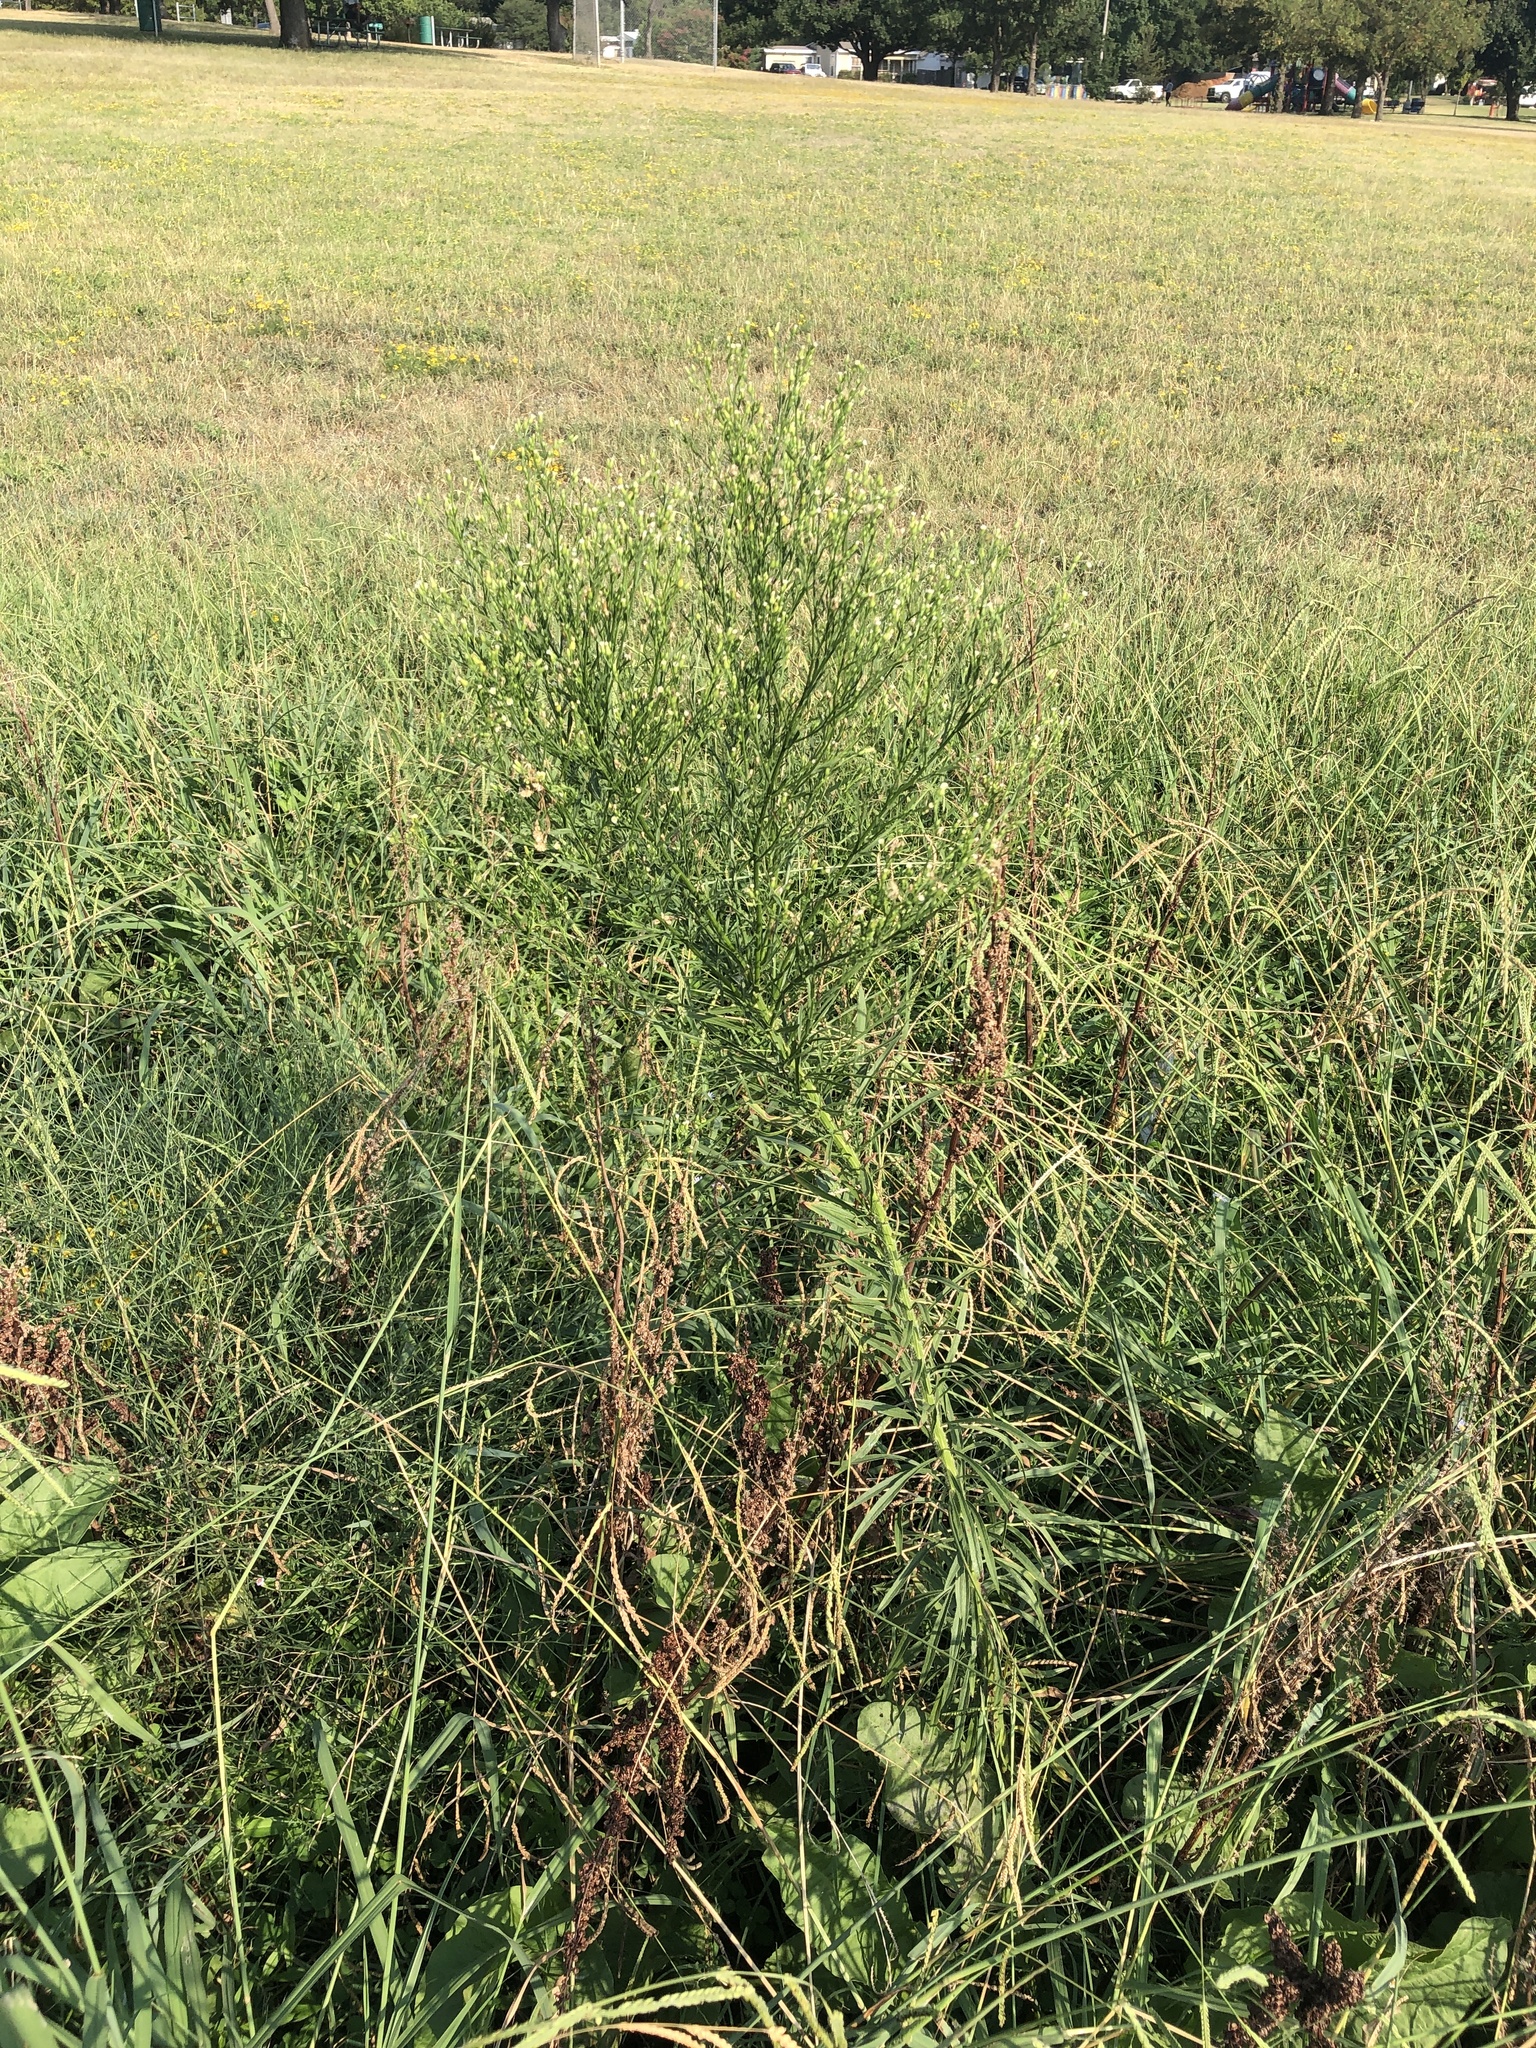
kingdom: Plantae
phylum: Tracheophyta
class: Magnoliopsida
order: Asterales
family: Asteraceae
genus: Erigeron
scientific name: Erigeron canadensis
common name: Canadian fleabane
